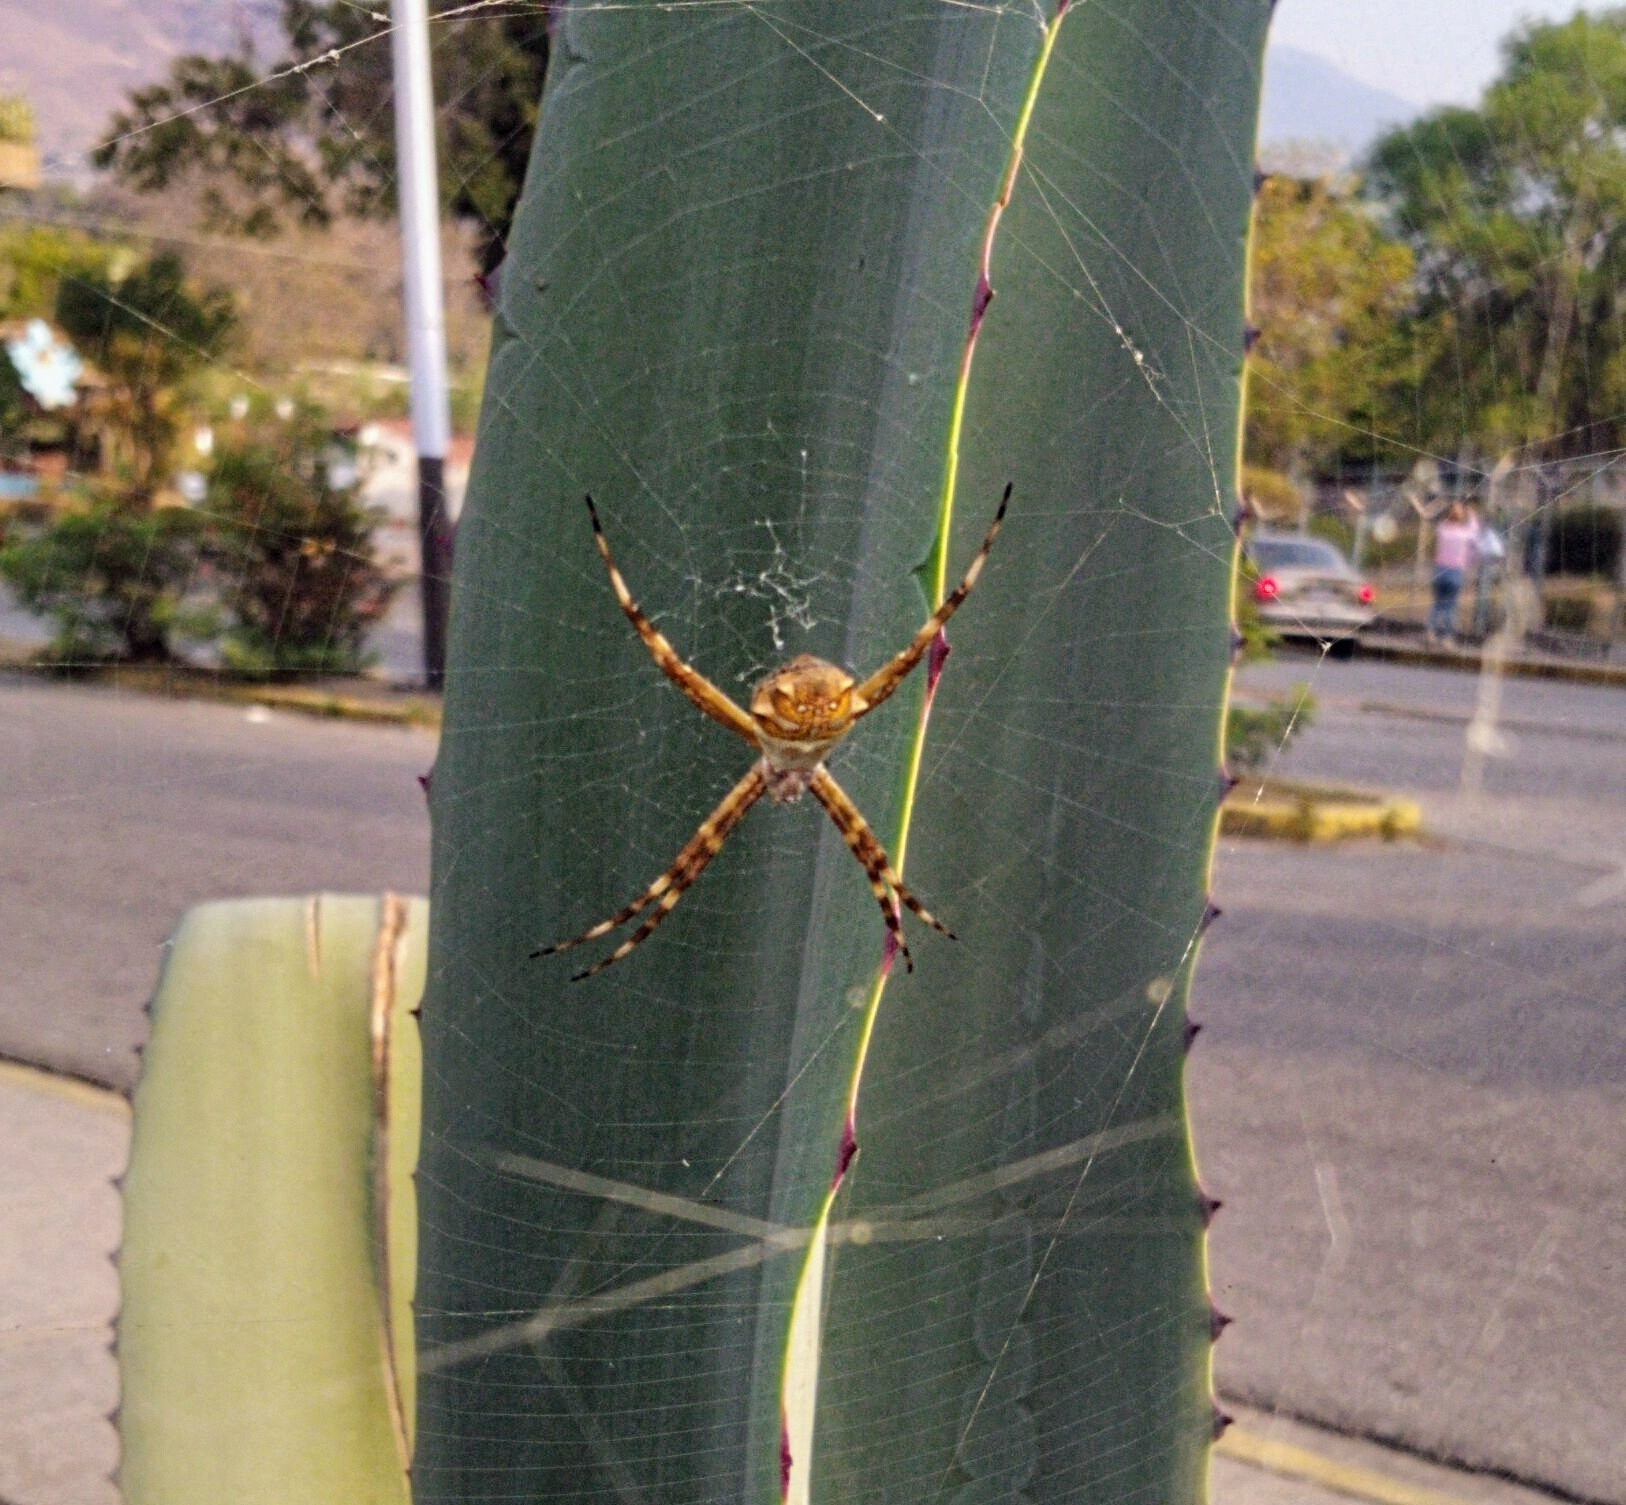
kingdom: Animalia
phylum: Arthropoda
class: Arachnida
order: Araneae
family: Araneidae
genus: Argiope
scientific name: Argiope argentata
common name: Orb weavers
